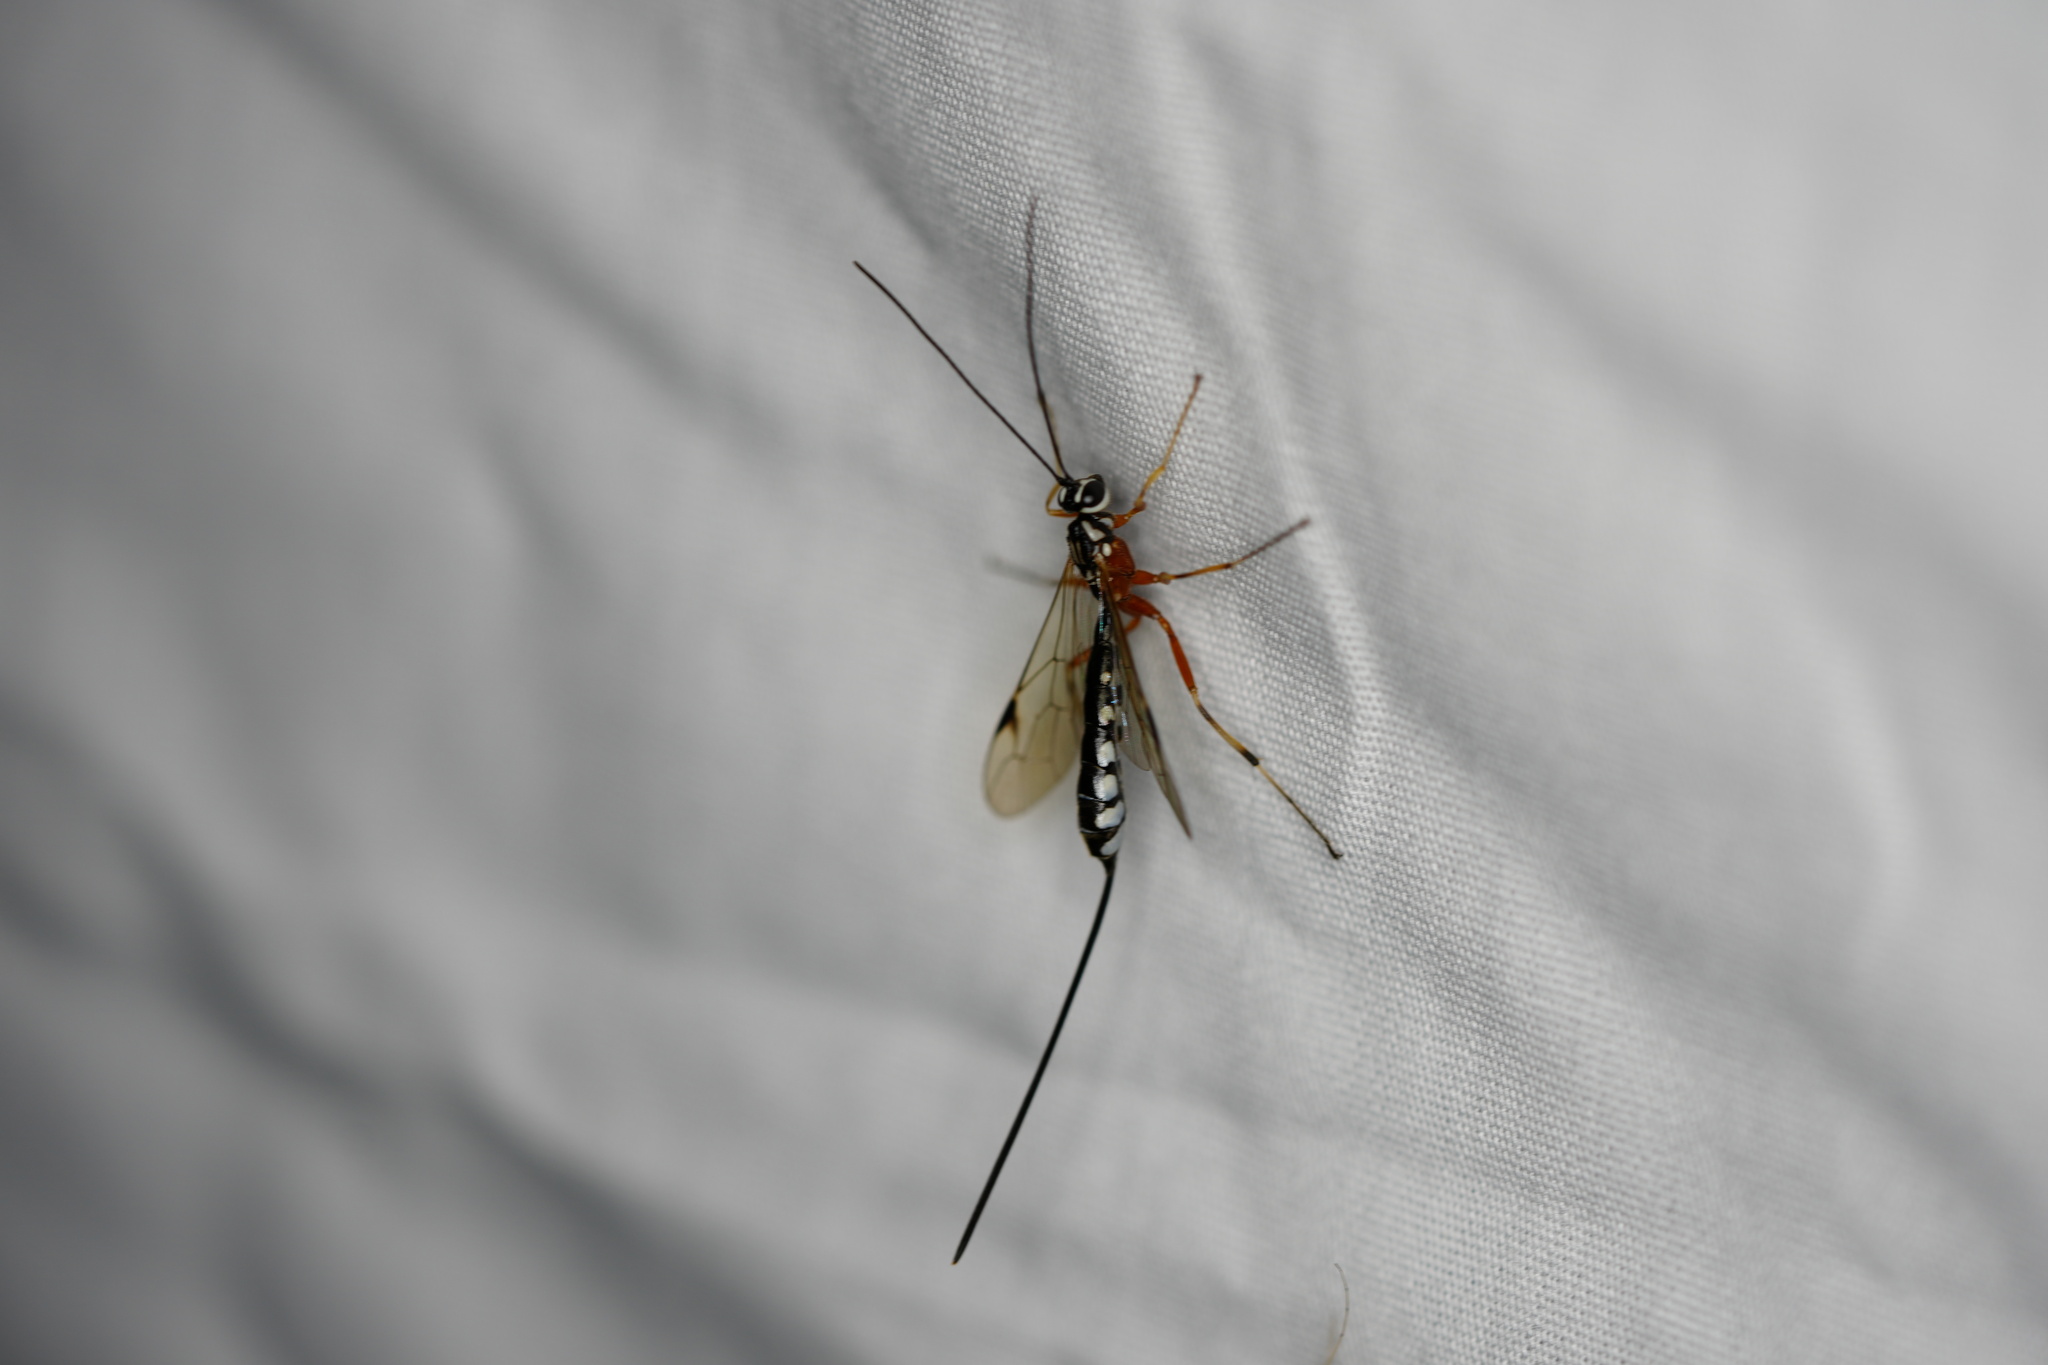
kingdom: Animalia
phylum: Arthropoda
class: Insecta
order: Hymenoptera
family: Ichneumonidae
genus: Rhyssella
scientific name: Rhyssella humida
